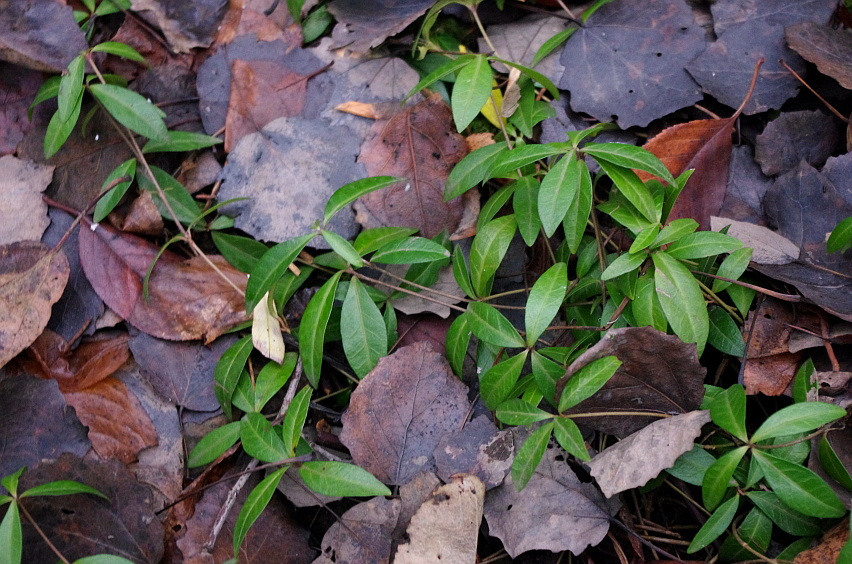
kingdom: Plantae
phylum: Tracheophyta
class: Magnoliopsida
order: Gentianales
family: Apocynaceae
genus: Vinca
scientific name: Vinca minor
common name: Lesser periwinkle
